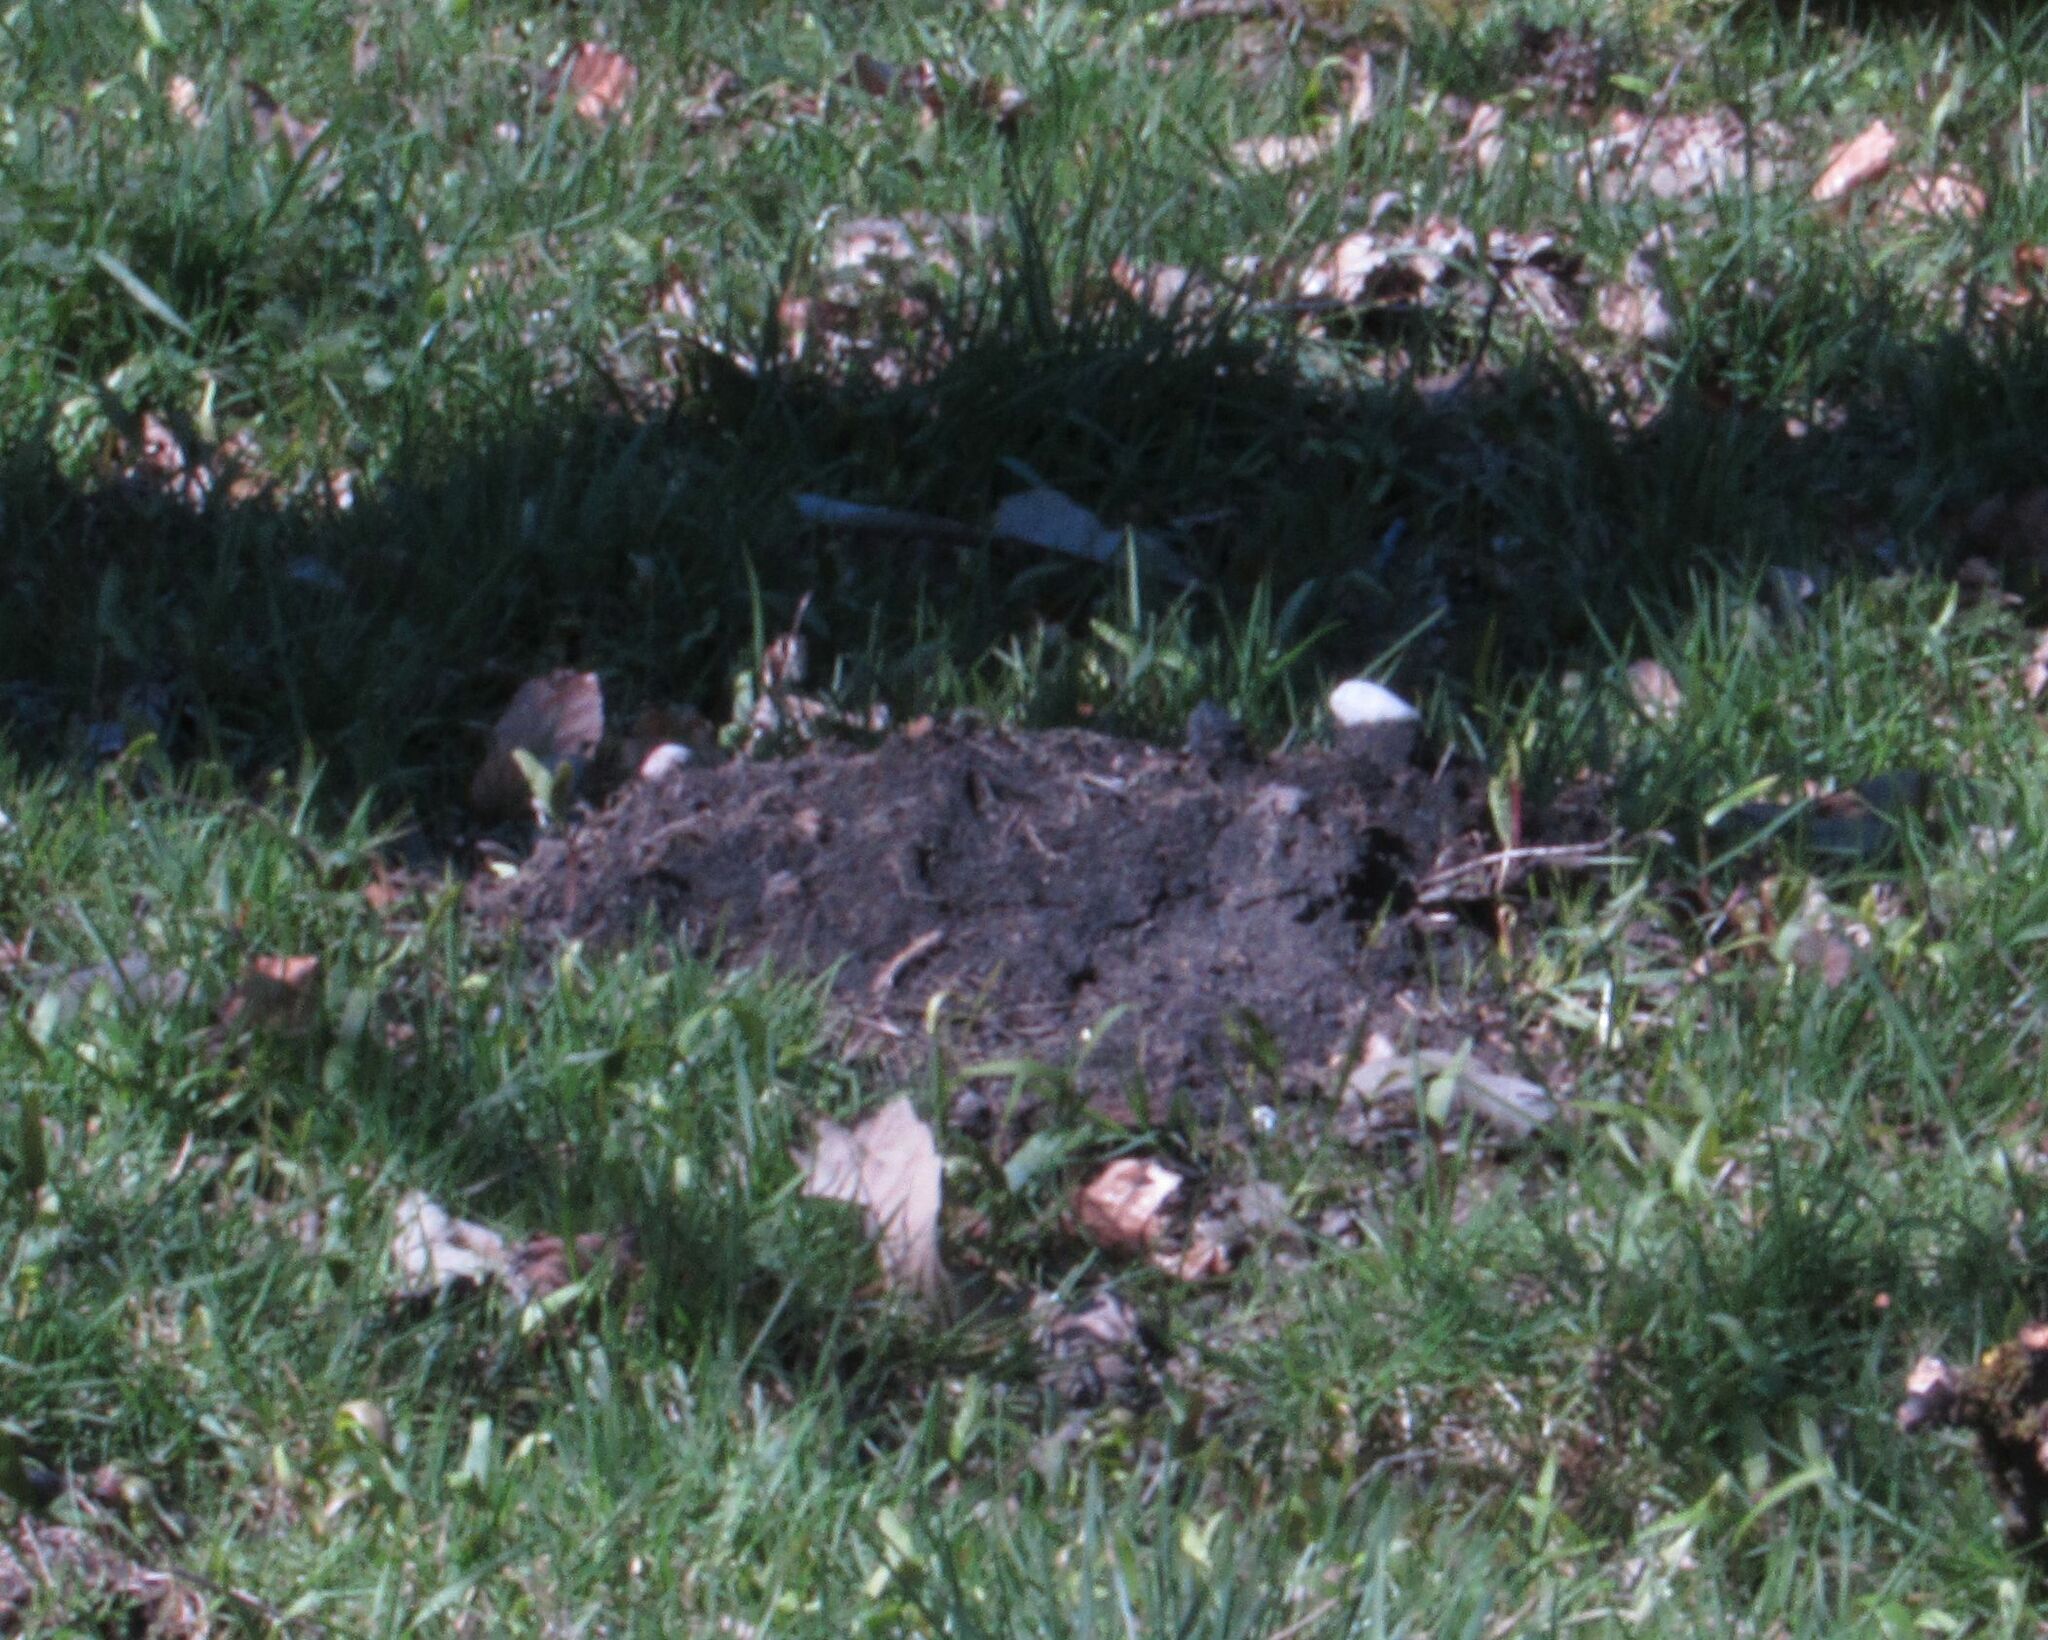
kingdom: Animalia
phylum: Chordata
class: Mammalia
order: Soricomorpha
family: Talpidae
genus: Talpa
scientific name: Talpa europaea
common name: European mole
